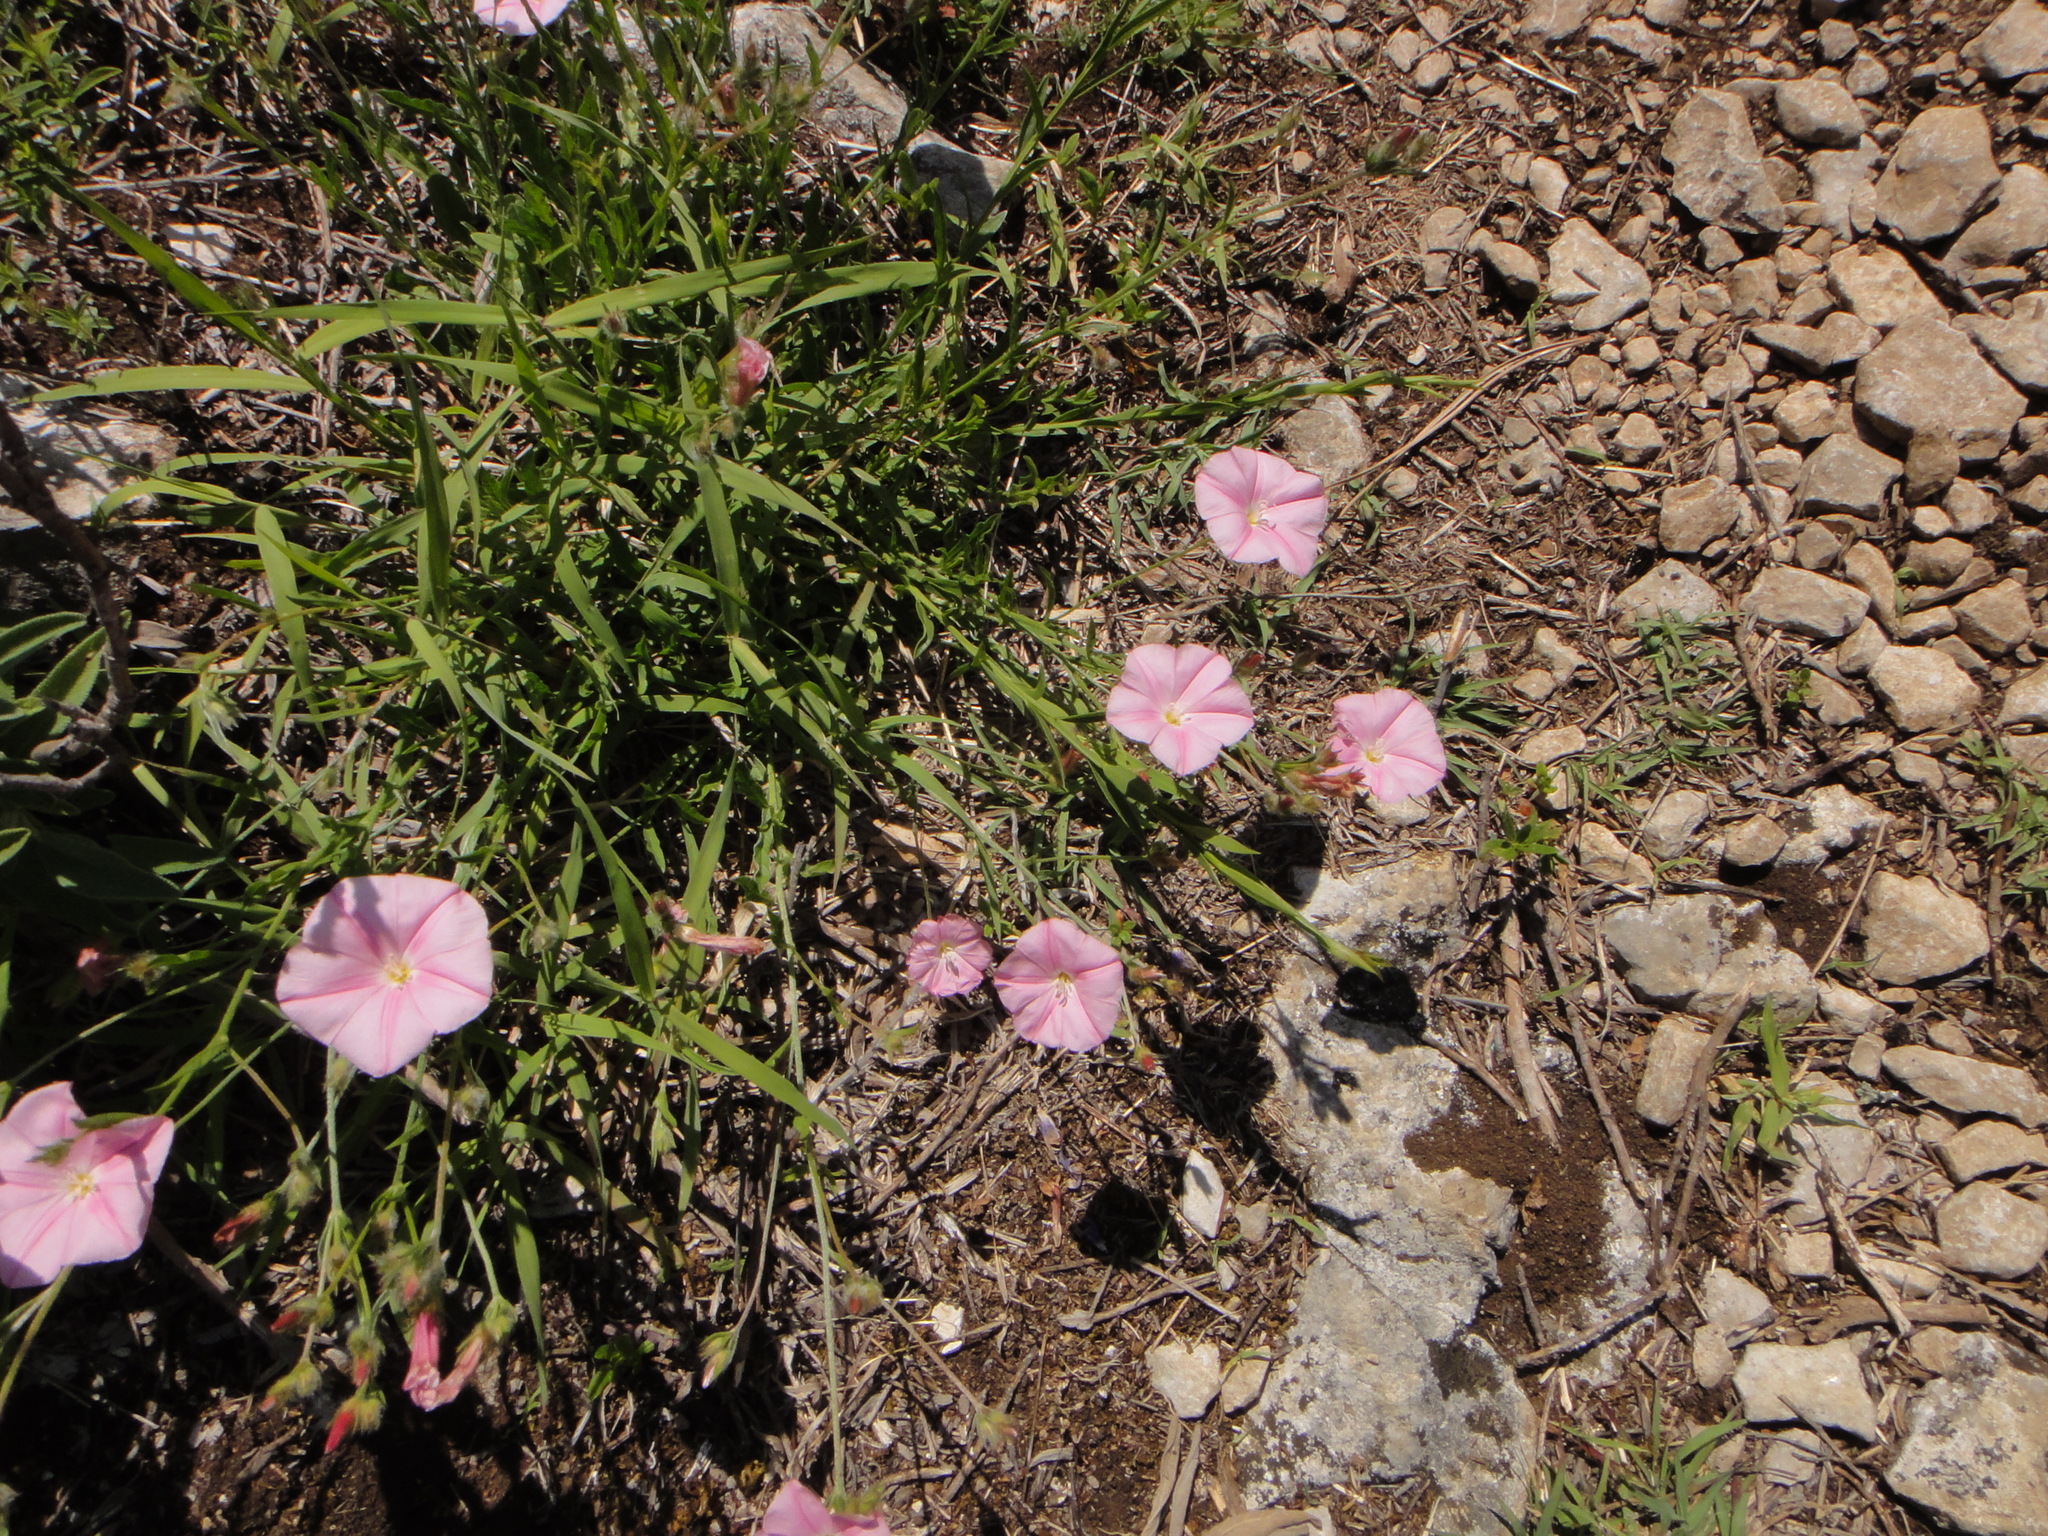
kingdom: Plantae
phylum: Tracheophyta
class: Magnoliopsida
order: Solanales
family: Convolvulaceae
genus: Convolvulus
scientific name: Convolvulus cantabrica
